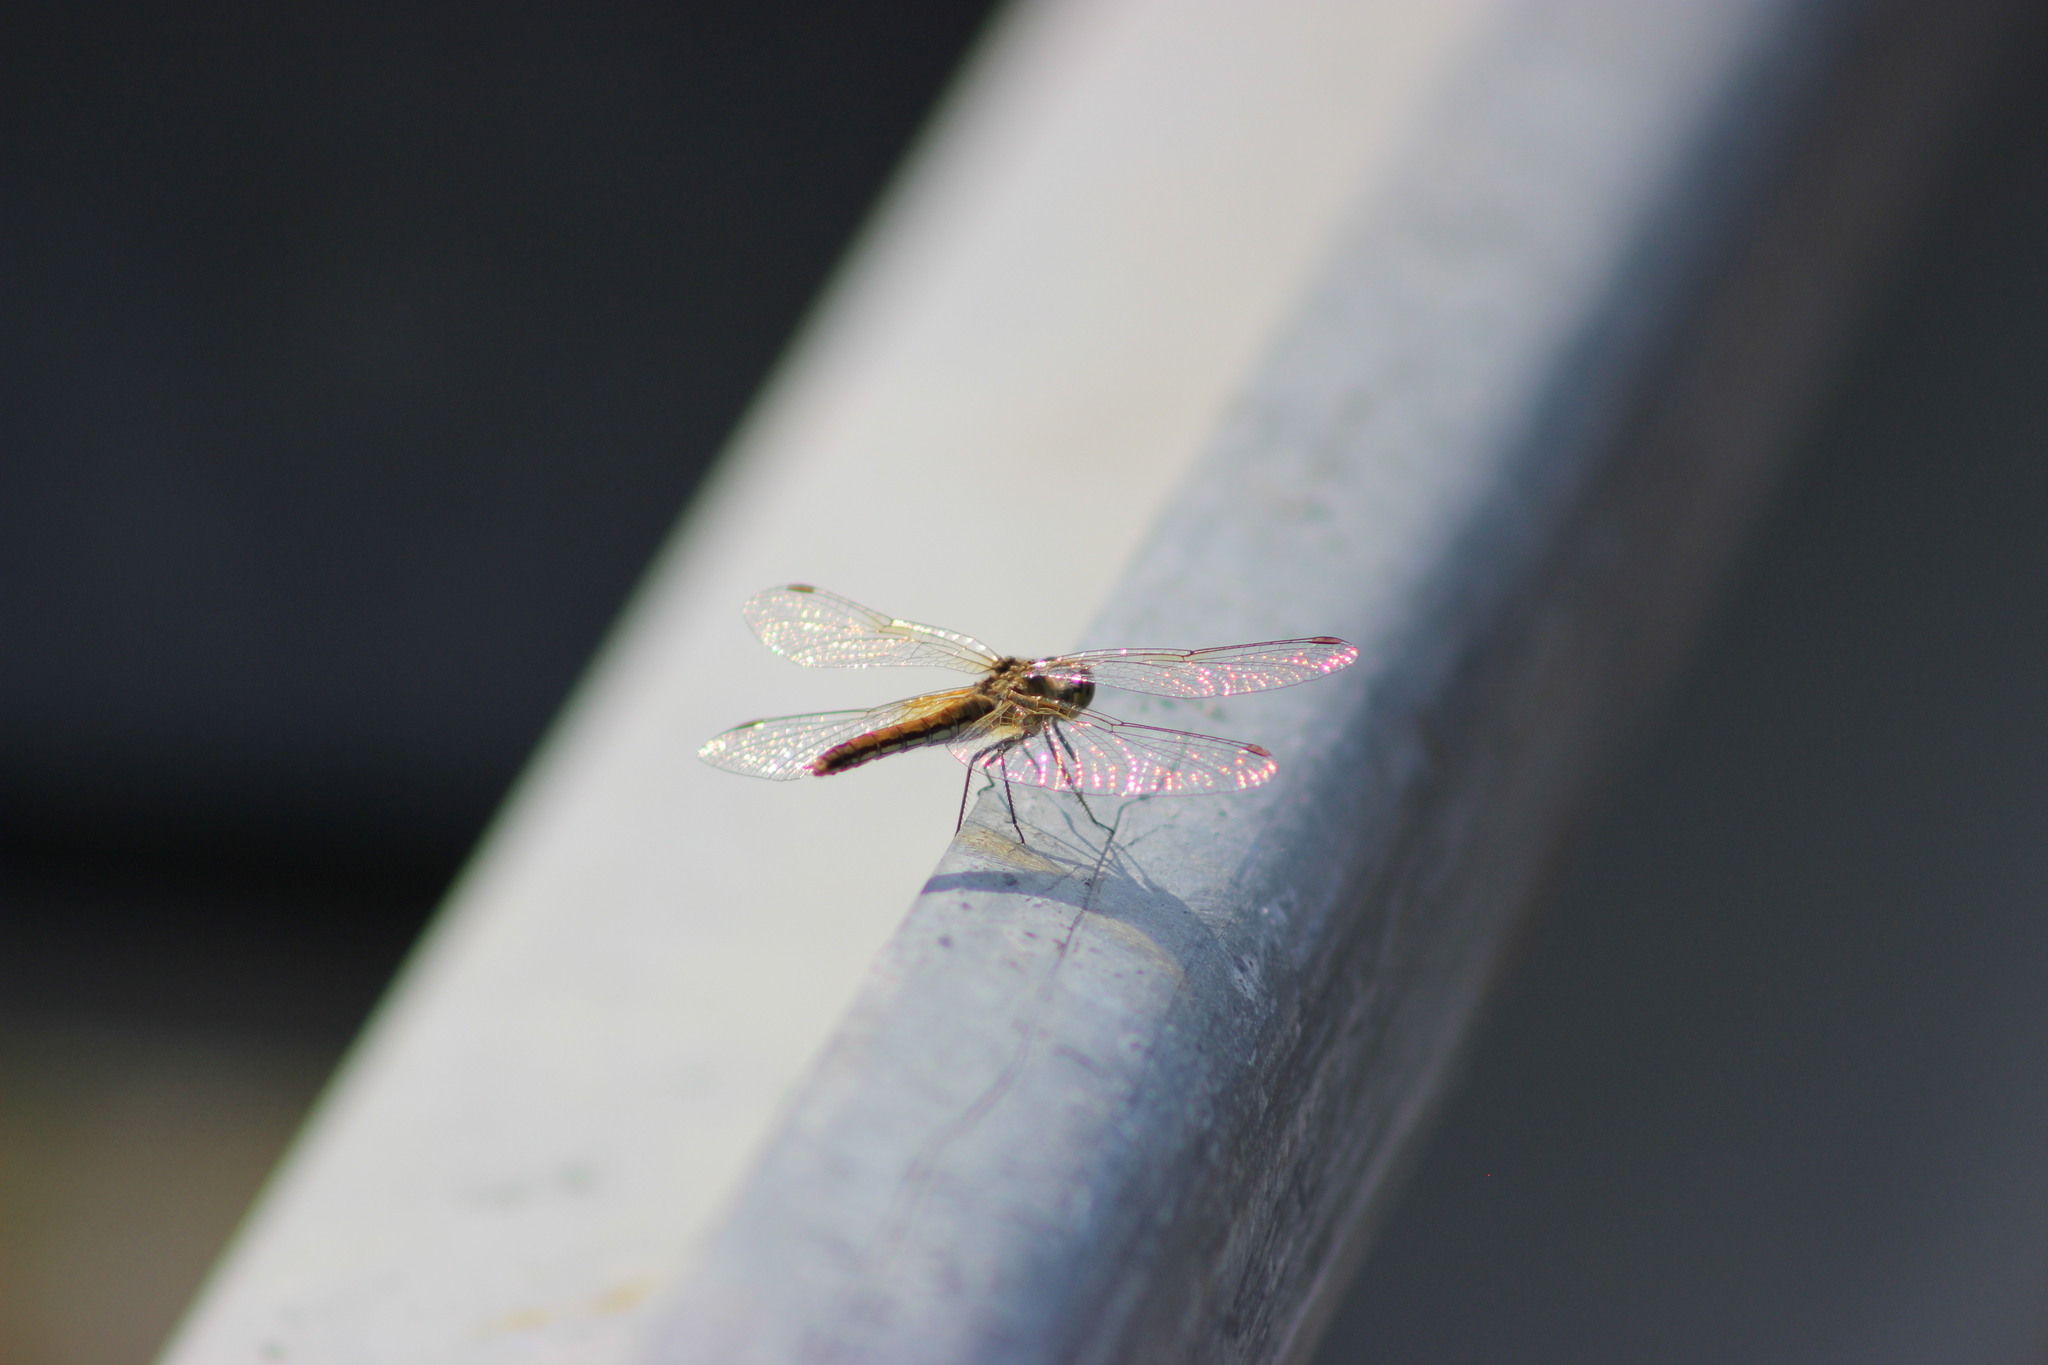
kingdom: Animalia
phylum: Arthropoda
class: Insecta
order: Odonata
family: Libellulidae
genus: Sympetrum
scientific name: Sympetrum flaveolum
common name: Yellow-winged darter
